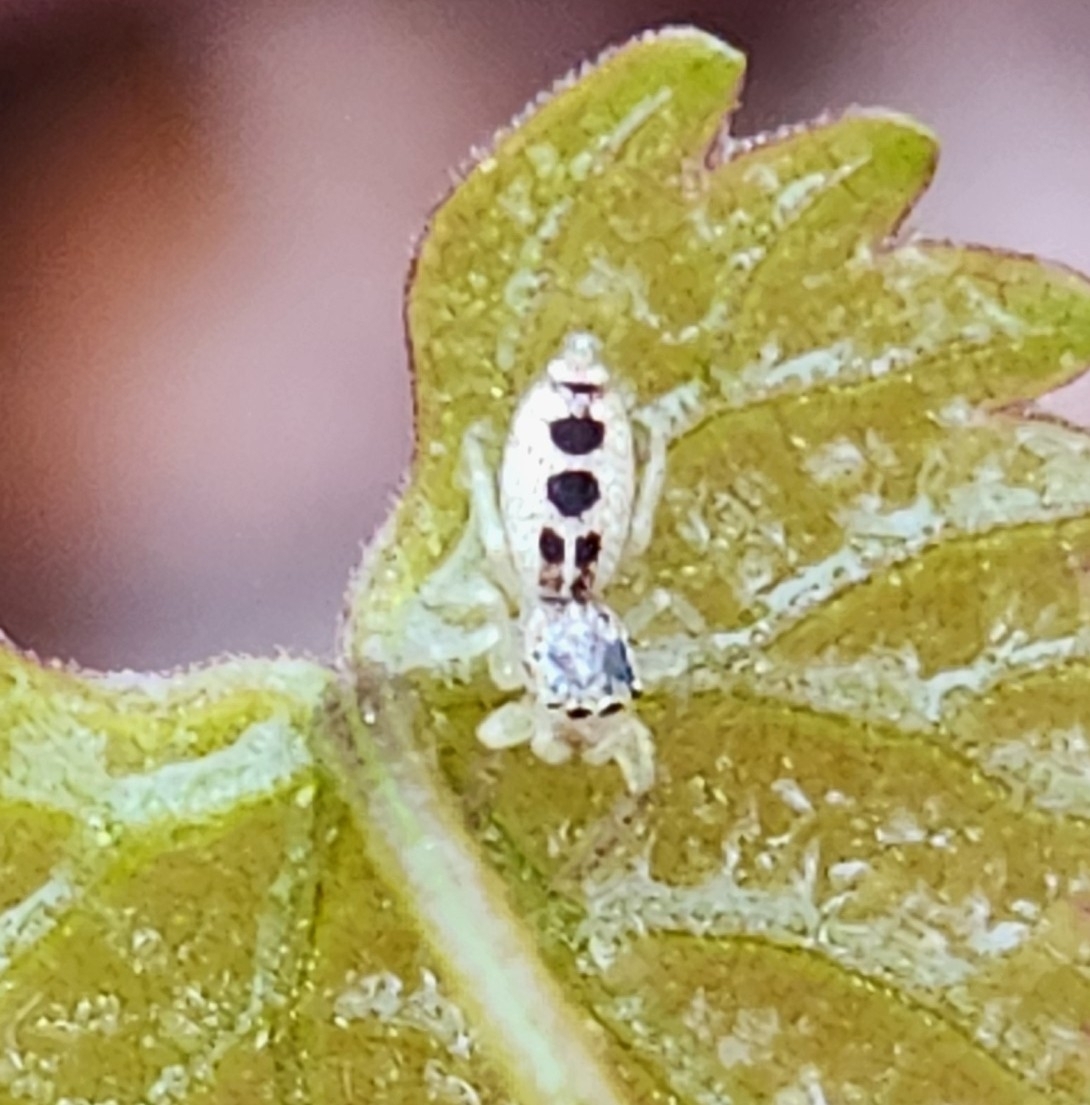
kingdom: Animalia
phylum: Arthropoda
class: Arachnida
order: Araneae
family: Salticidae
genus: Hentzia
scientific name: Hentzia mitrata
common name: White-jawed jumping spider
